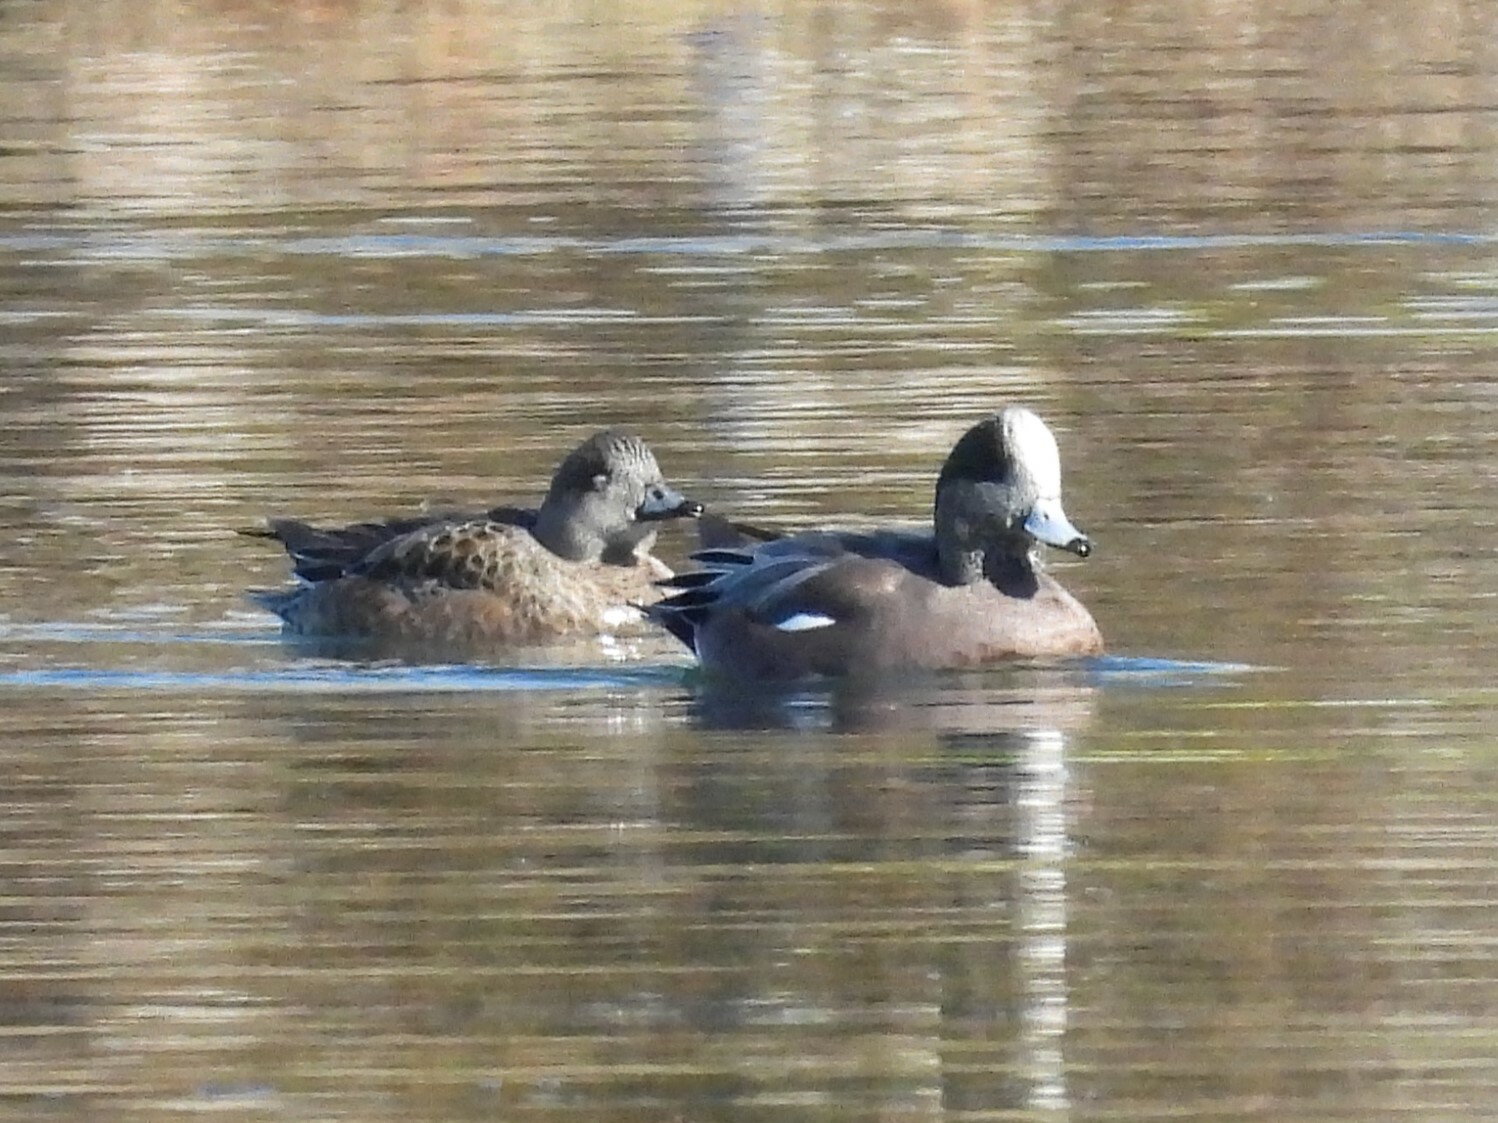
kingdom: Animalia
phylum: Chordata
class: Aves
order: Anseriformes
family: Anatidae
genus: Mareca
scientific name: Mareca americana
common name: American wigeon
